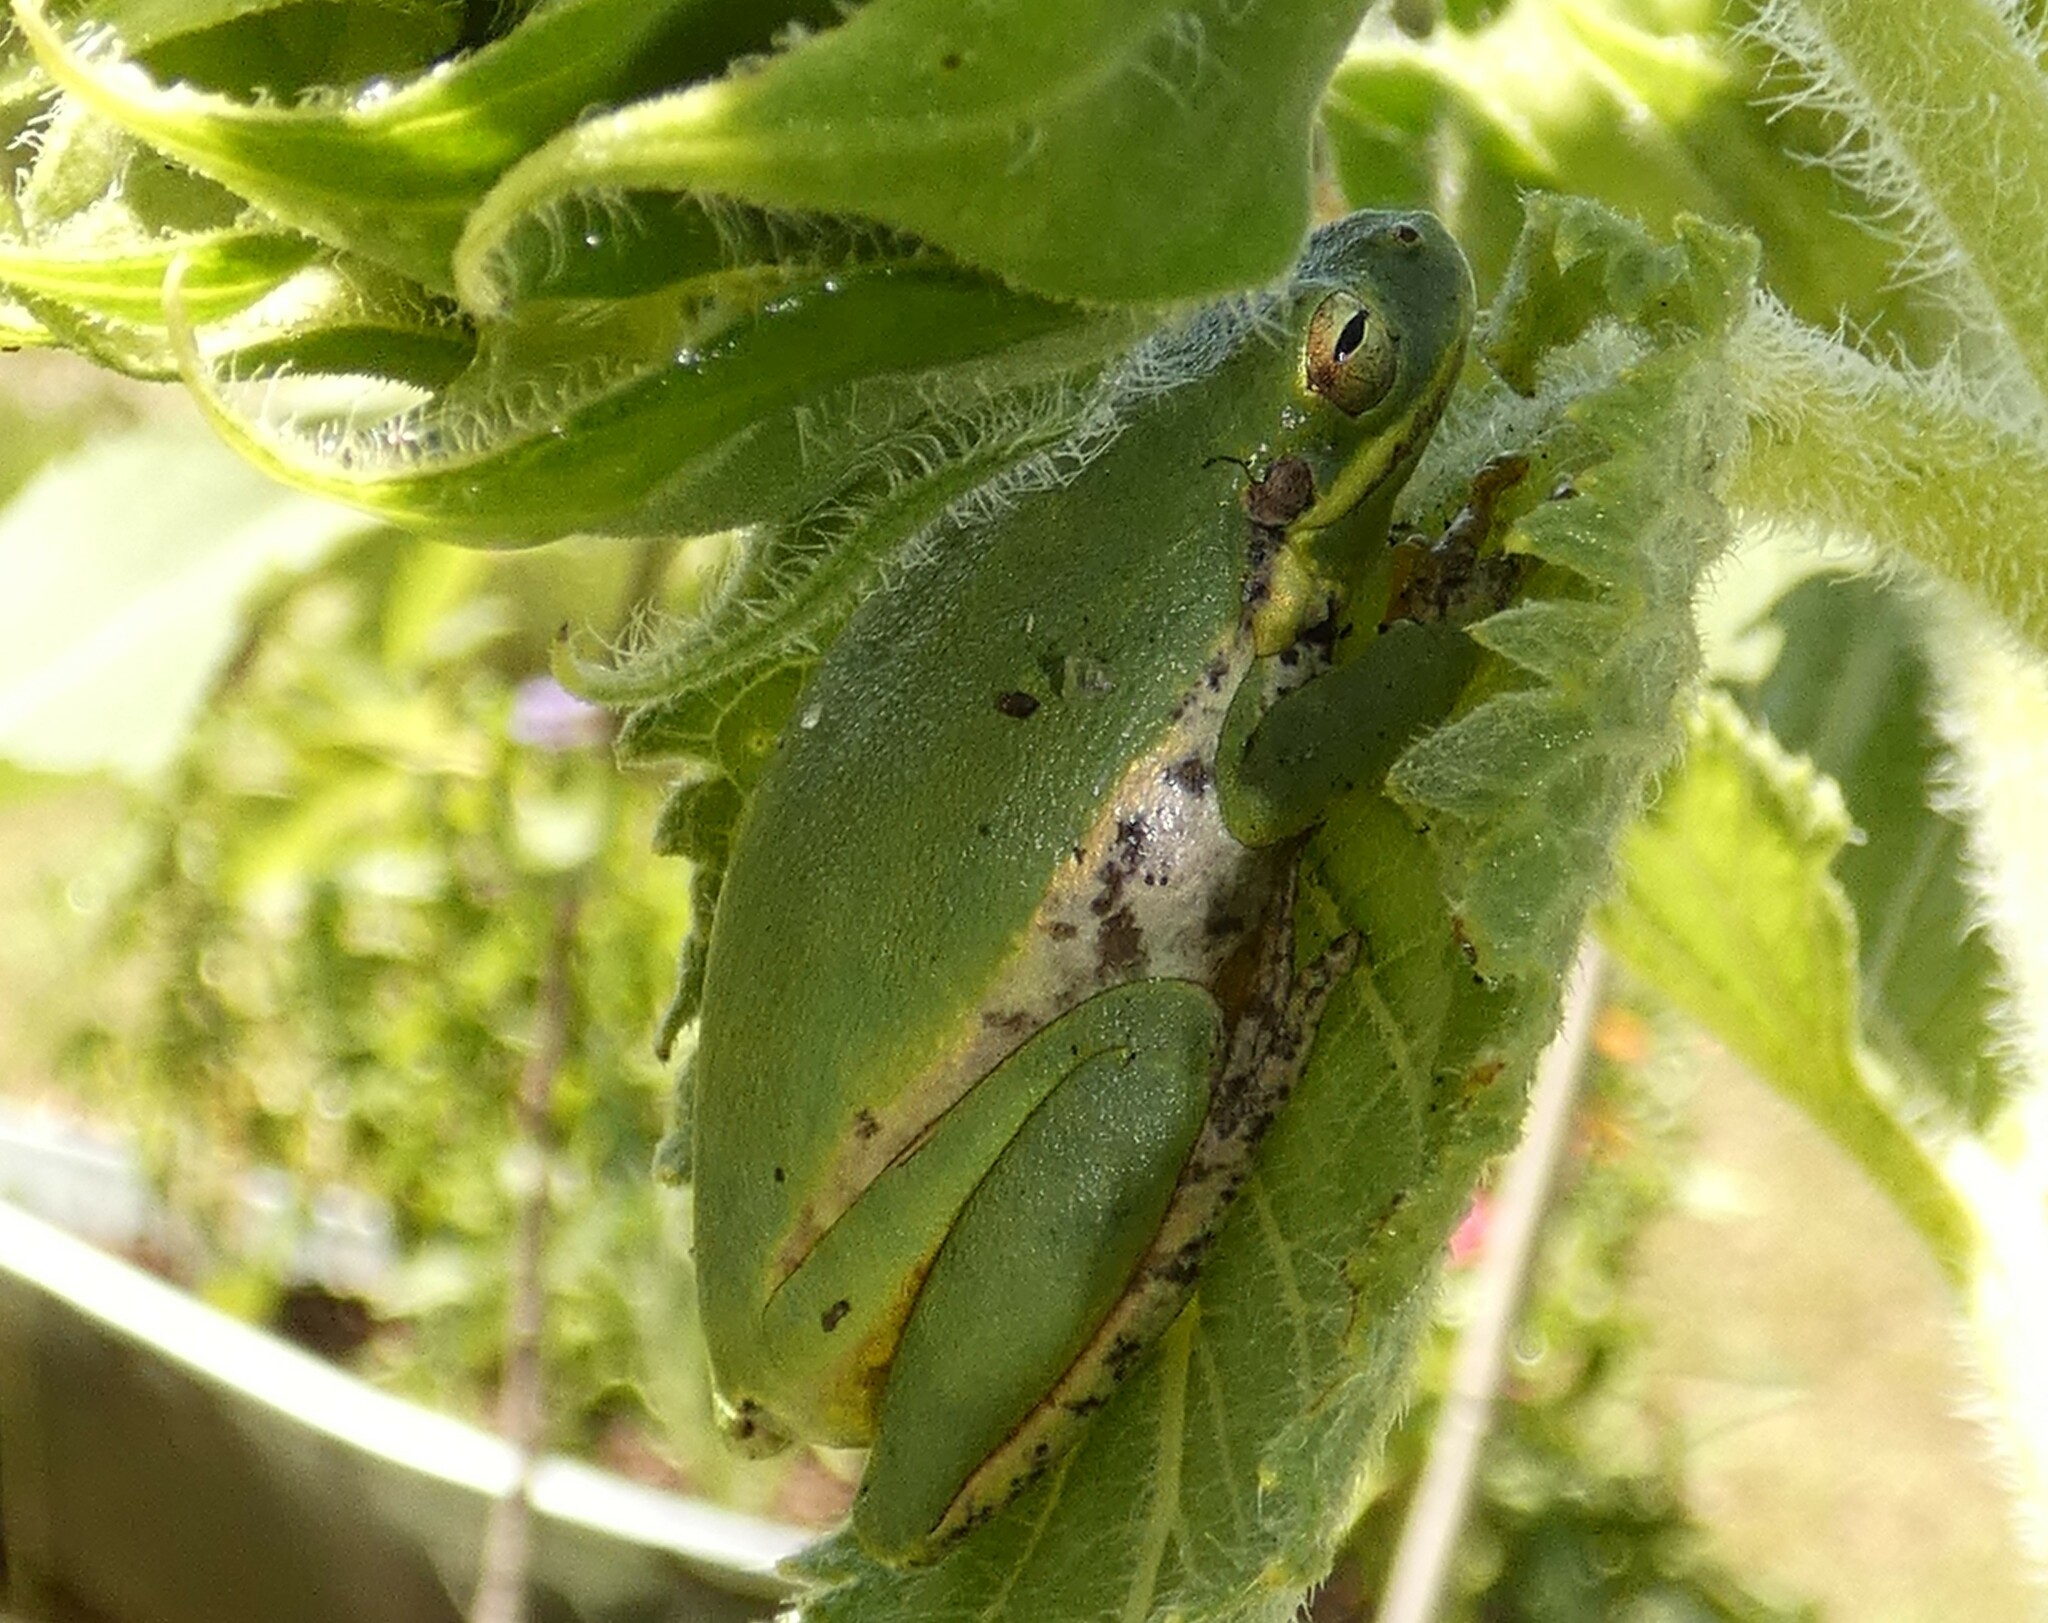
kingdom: Animalia
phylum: Chordata
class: Amphibia
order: Anura
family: Hylidae
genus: Dryophytes
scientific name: Dryophytes squirellus
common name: Squirrel treefrog
